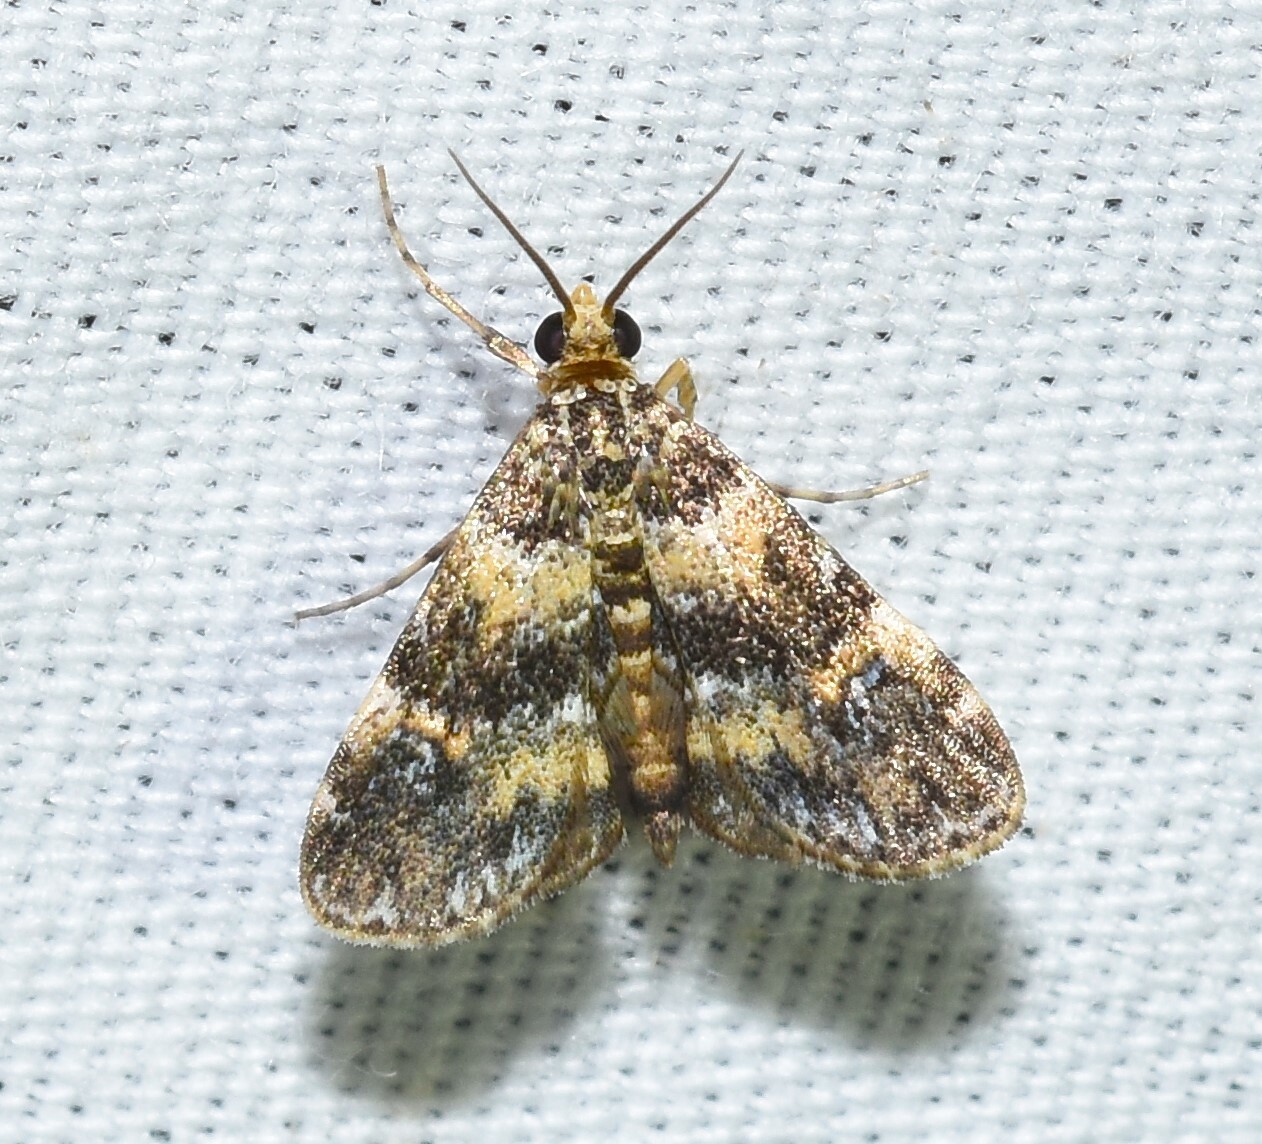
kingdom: Animalia
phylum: Arthropoda
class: Insecta
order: Lepidoptera
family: Crambidae
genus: Elophila
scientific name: Elophila obliteralis
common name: Waterlily leafcutter moth
